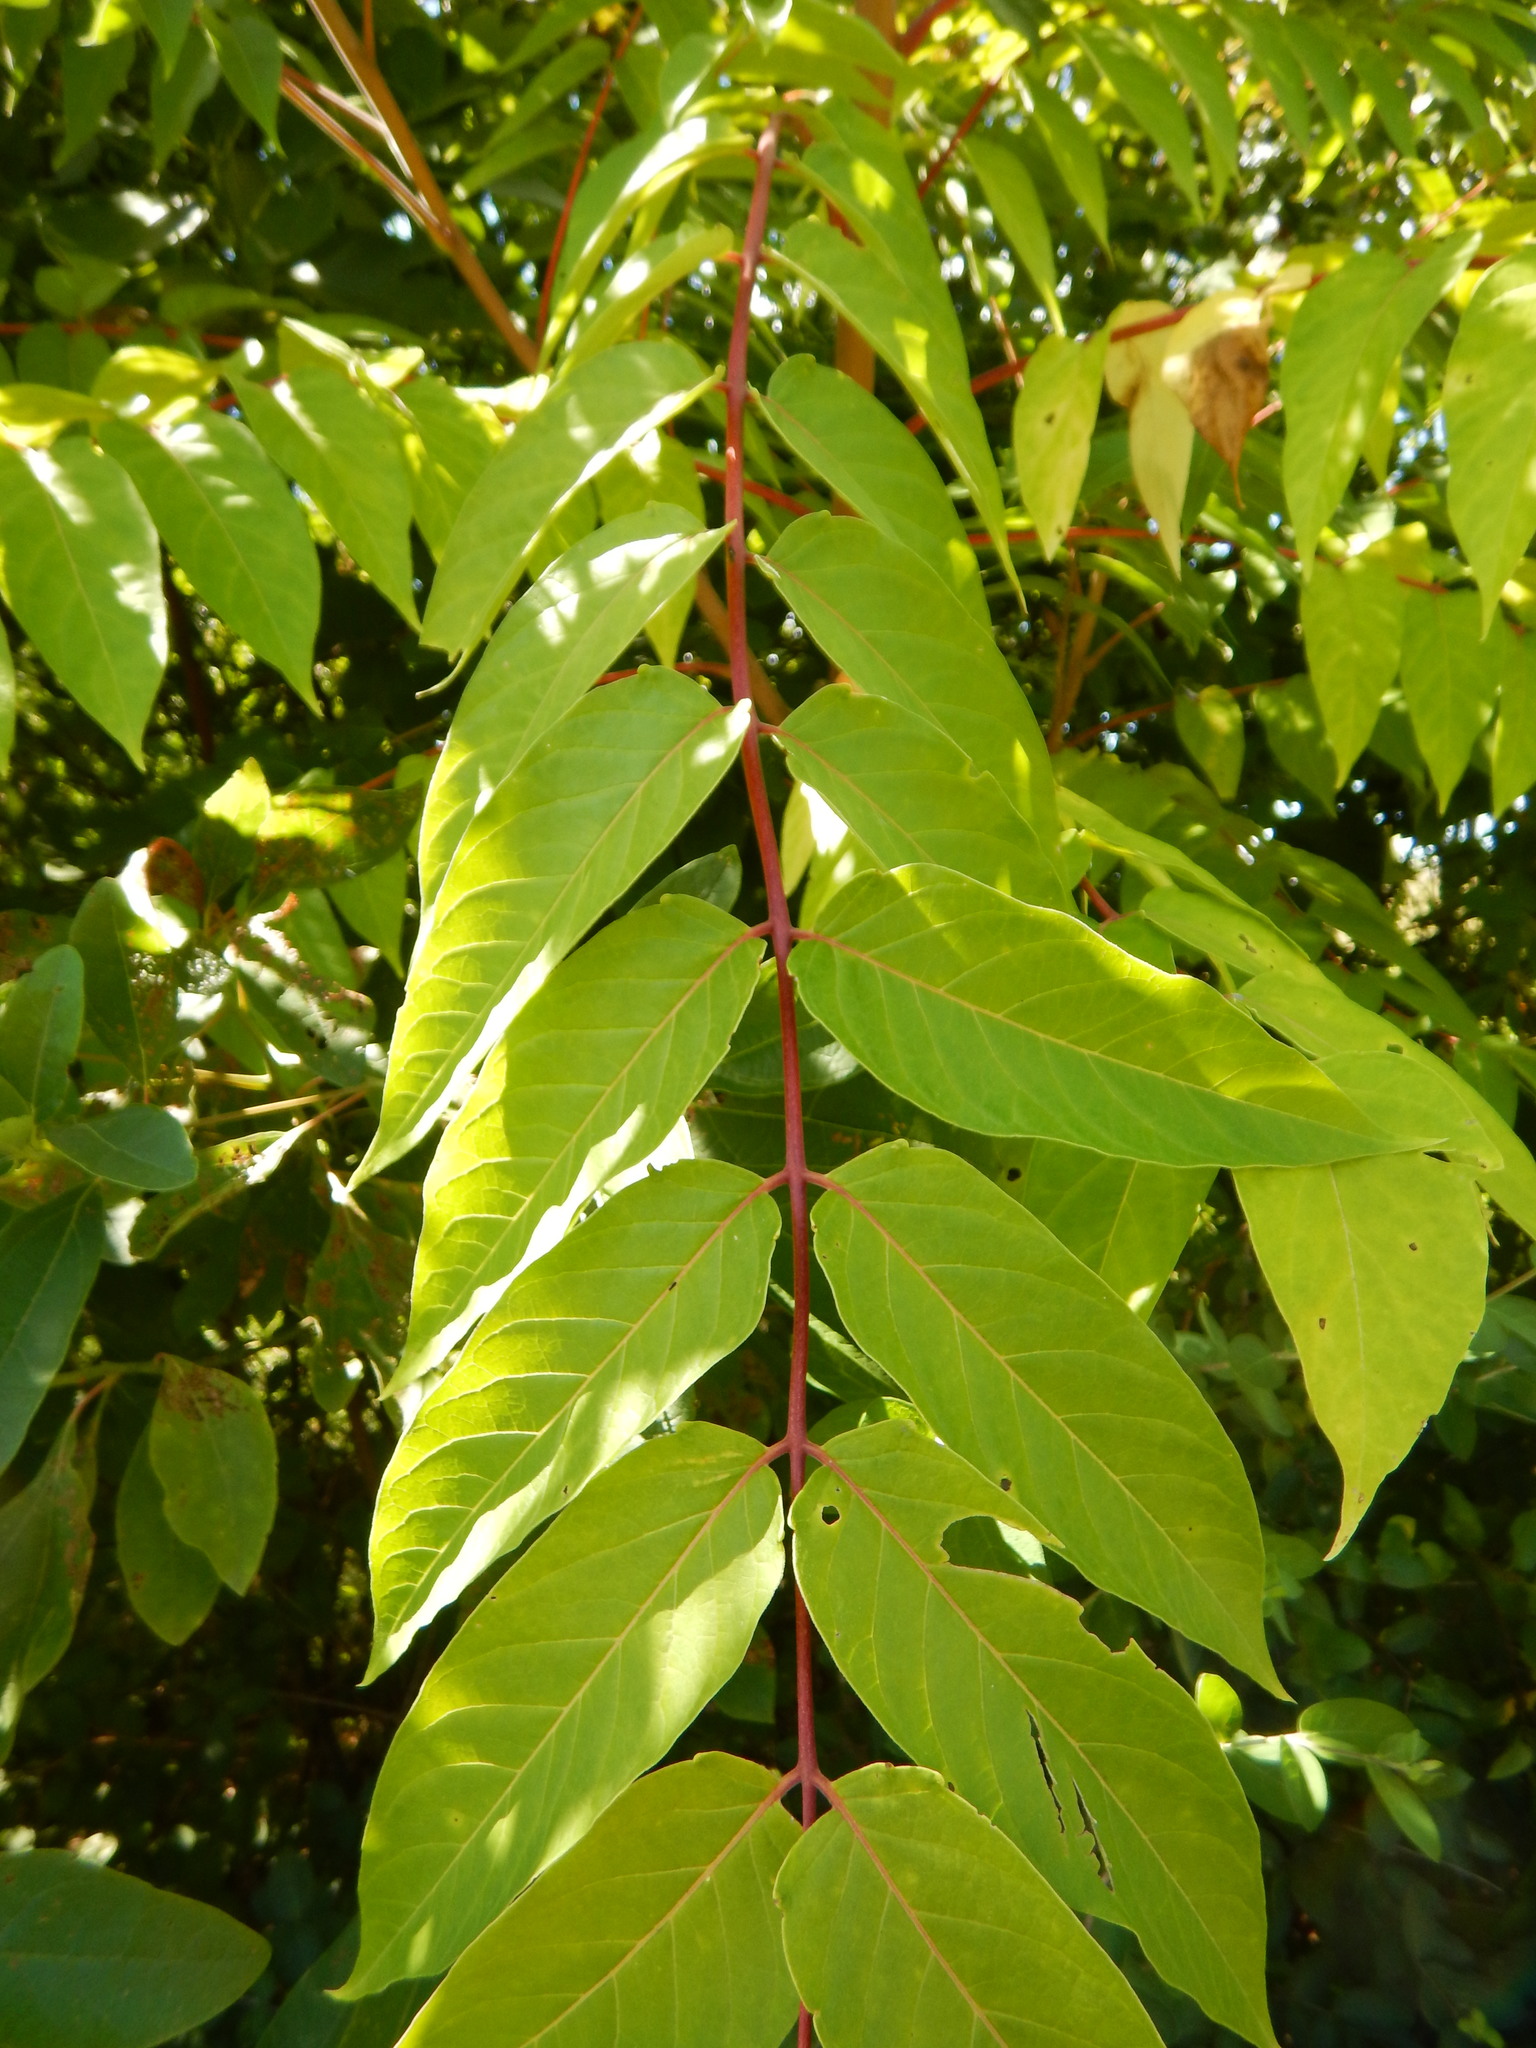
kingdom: Plantae
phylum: Tracheophyta
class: Magnoliopsida
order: Sapindales
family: Simaroubaceae
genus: Ailanthus
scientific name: Ailanthus altissima
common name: Tree-of-heaven
